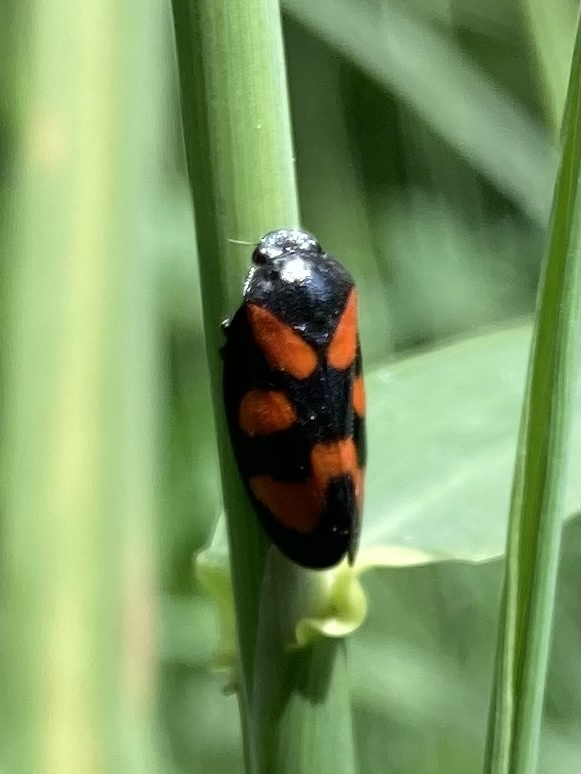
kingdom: Animalia
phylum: Arthropoda
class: Insecta
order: Hemiptera
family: Cercopidae
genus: Cercopis
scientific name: Cercopis vulnerata
